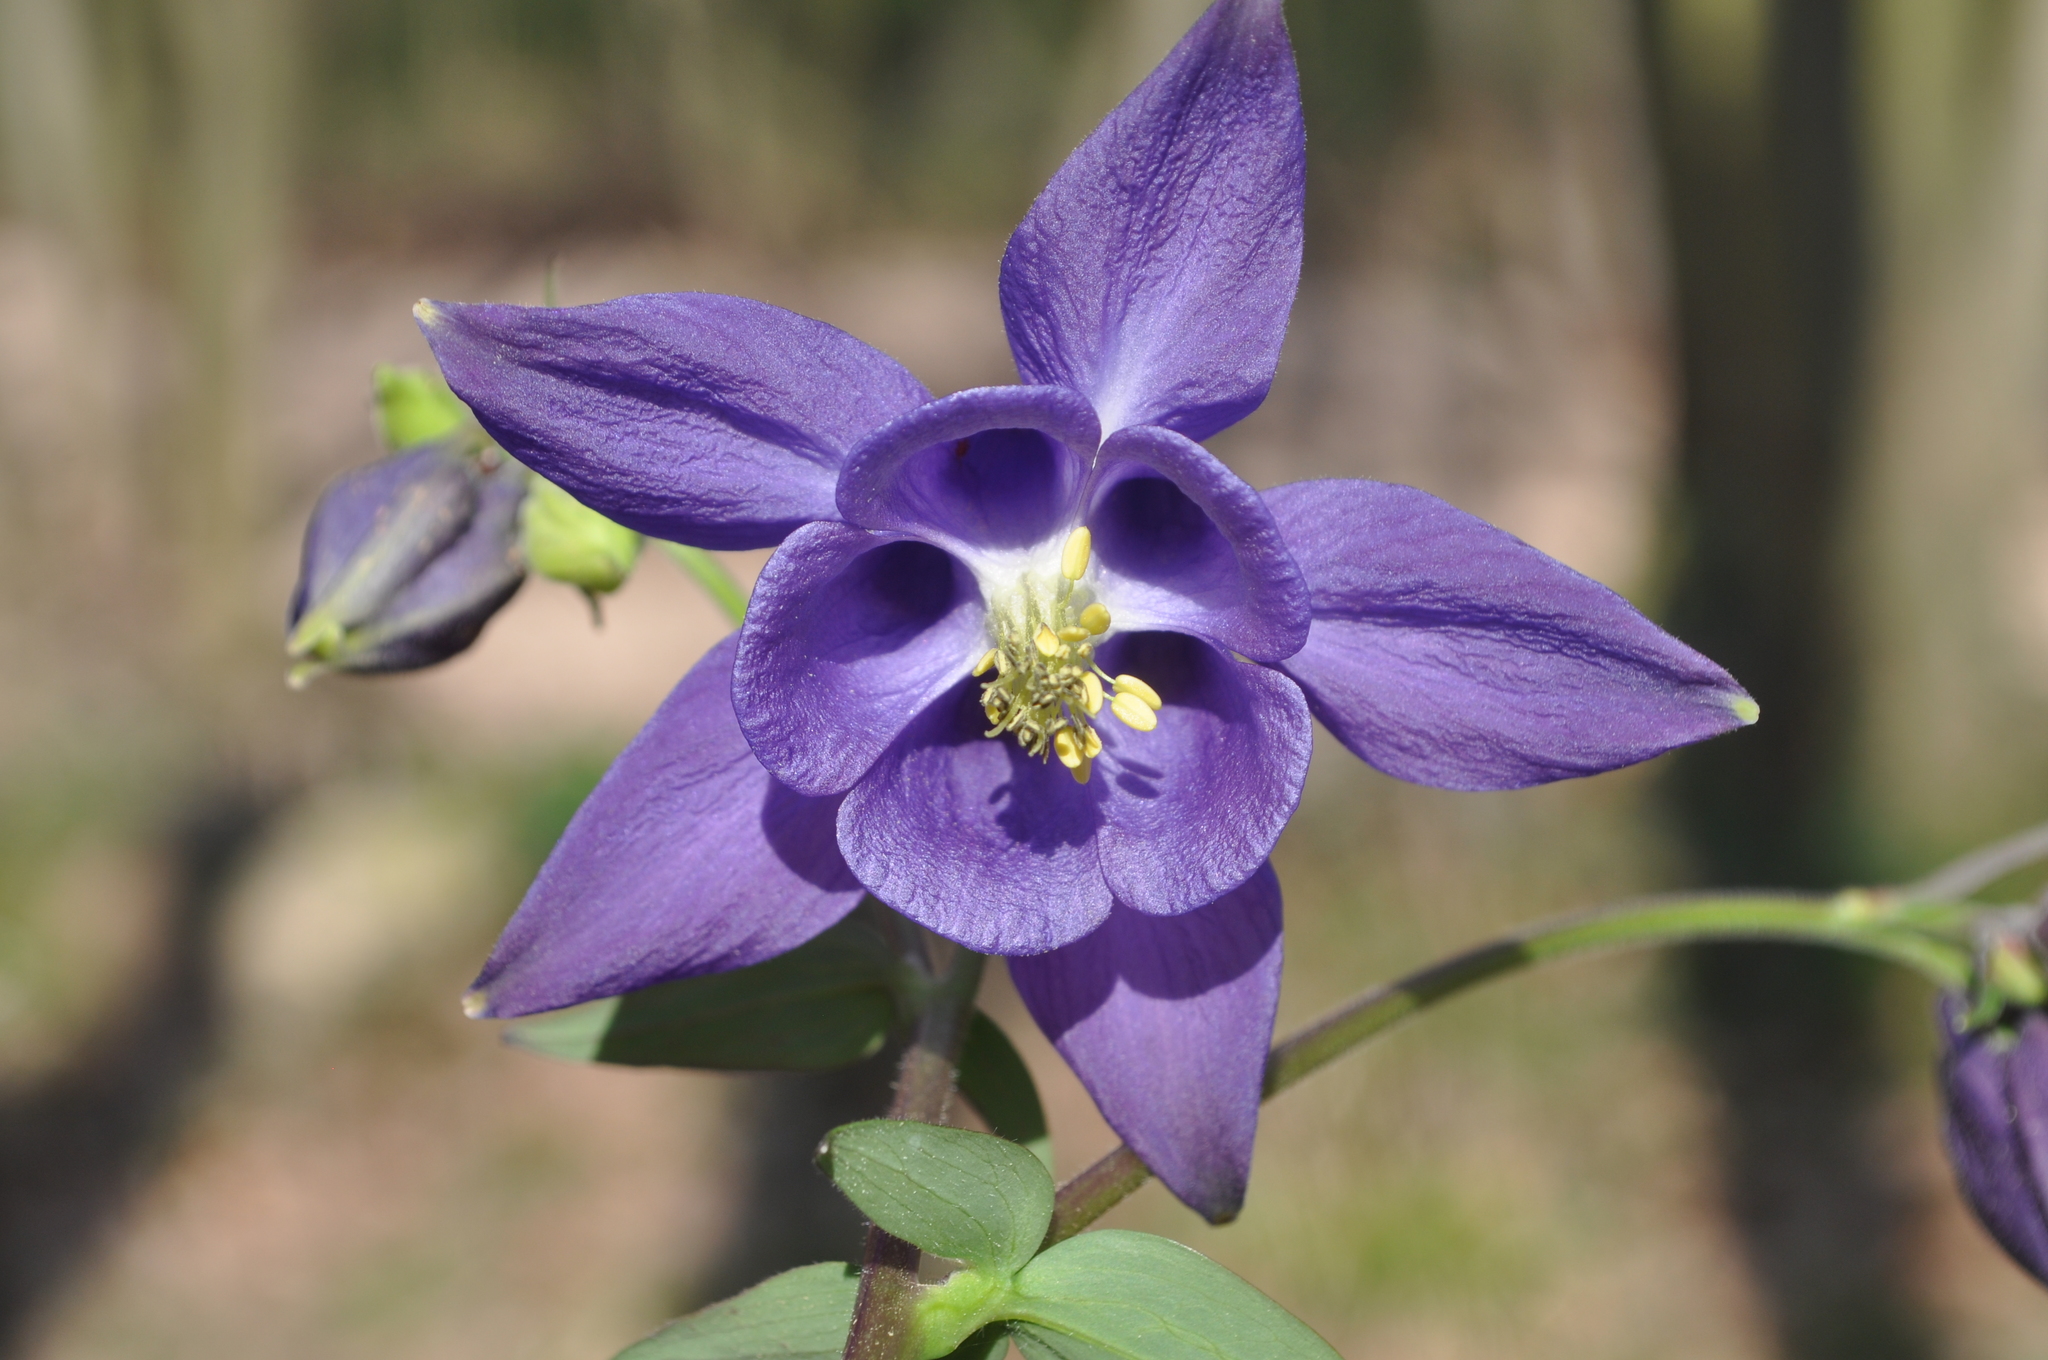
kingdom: Plantae
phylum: Tracheophyta
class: Magnoliopsida
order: Ranunculales
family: Ranunculaceae
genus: Aquilegia
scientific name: Aquilegia vulgaris
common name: Columbine
